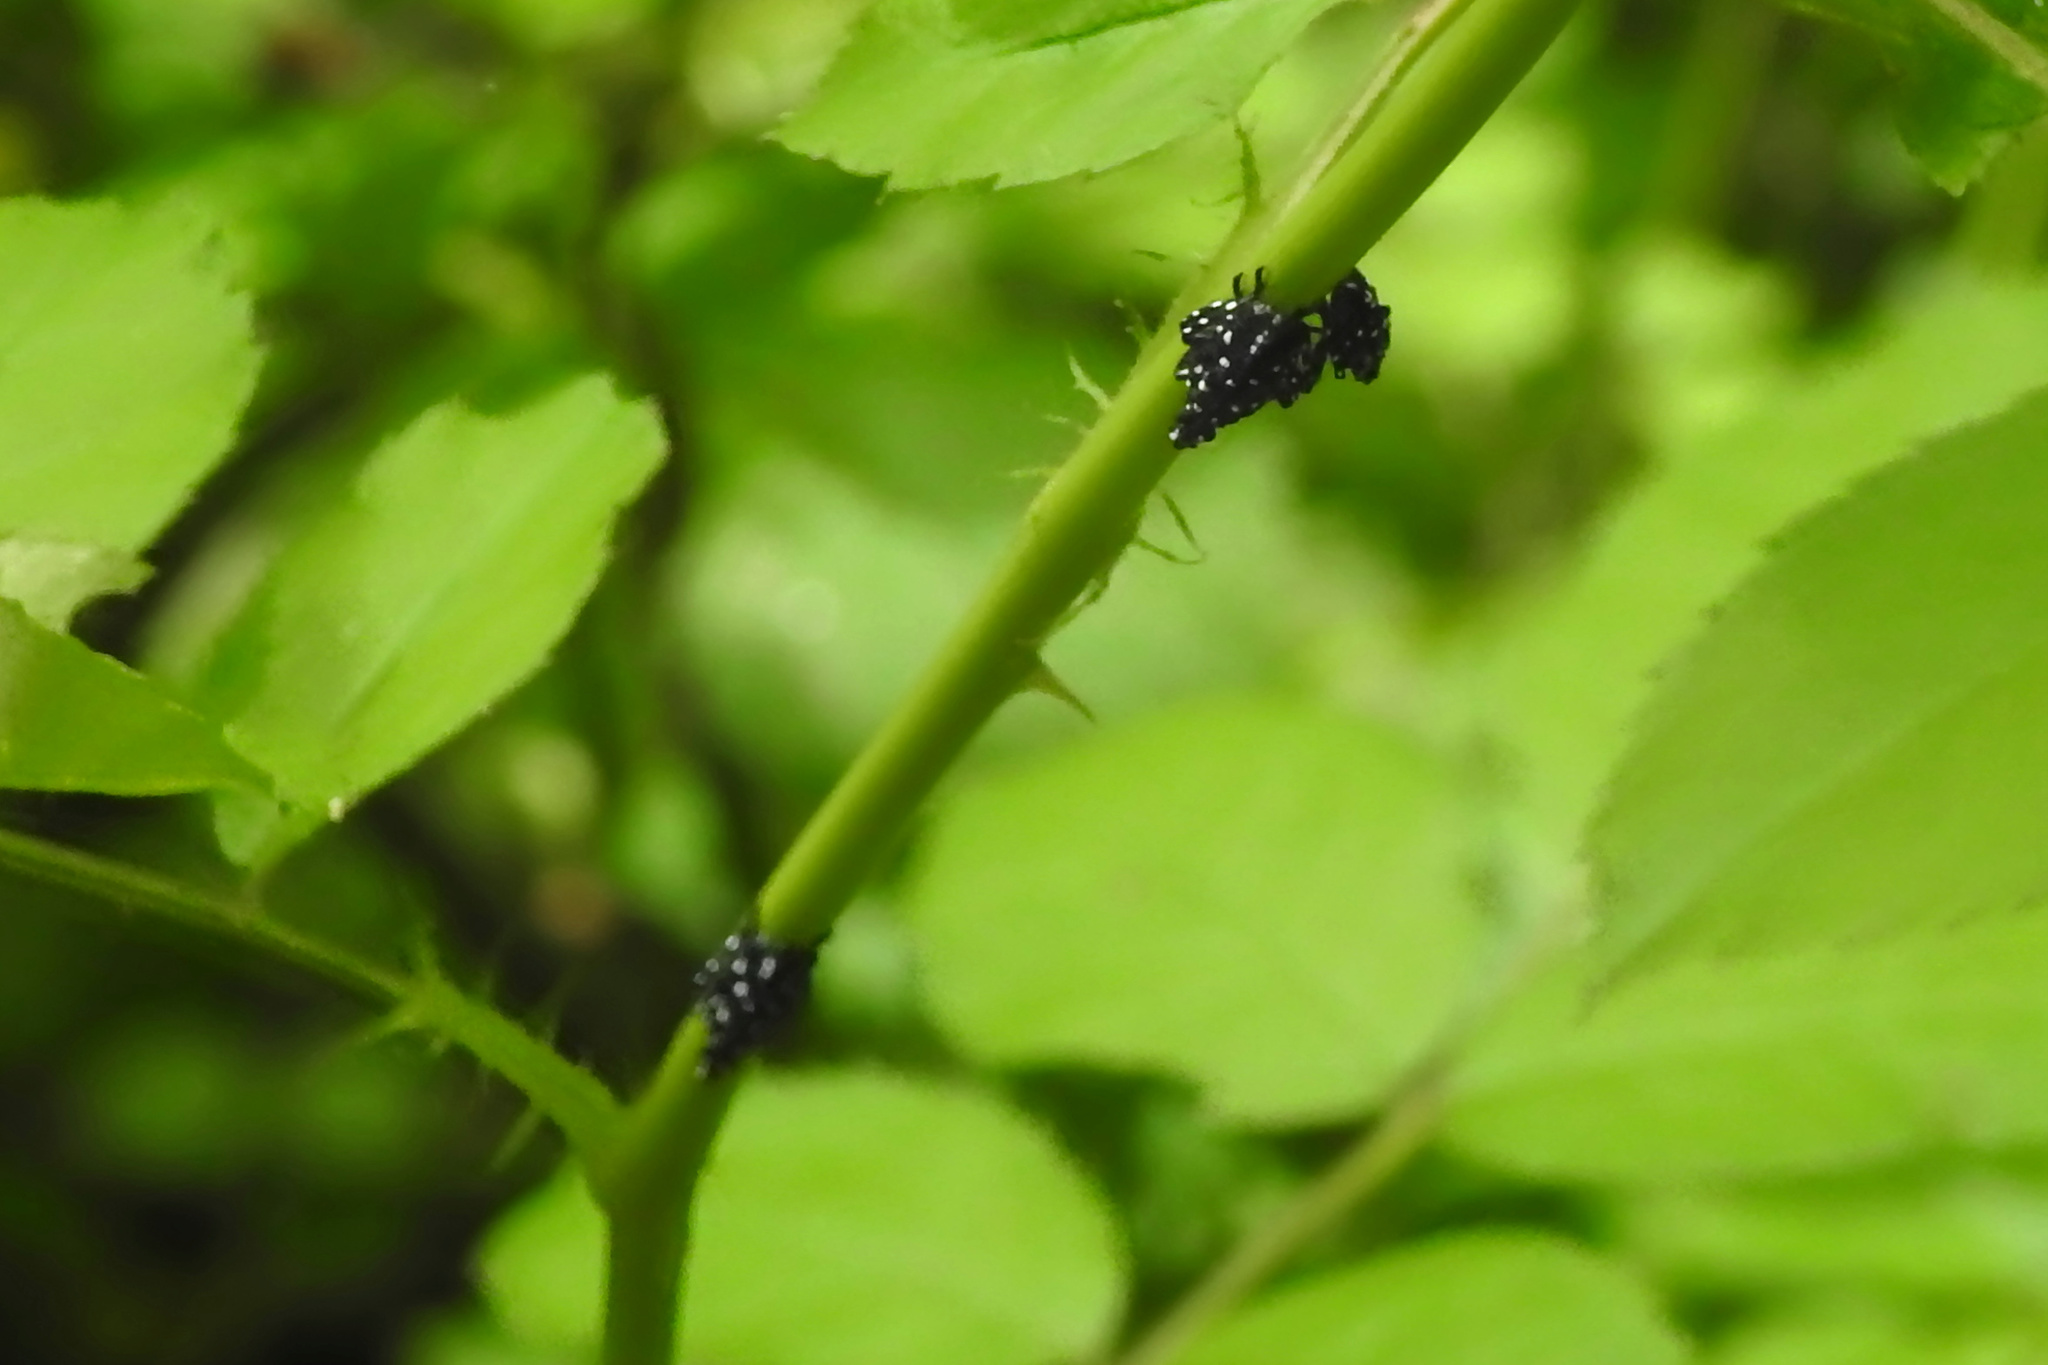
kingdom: Animalia
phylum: Arthropoda
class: Insecta
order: Hemiptera
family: Fulgoridae
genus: Lycorma
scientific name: Lycorma delicatula
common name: Spotted lanternfly
